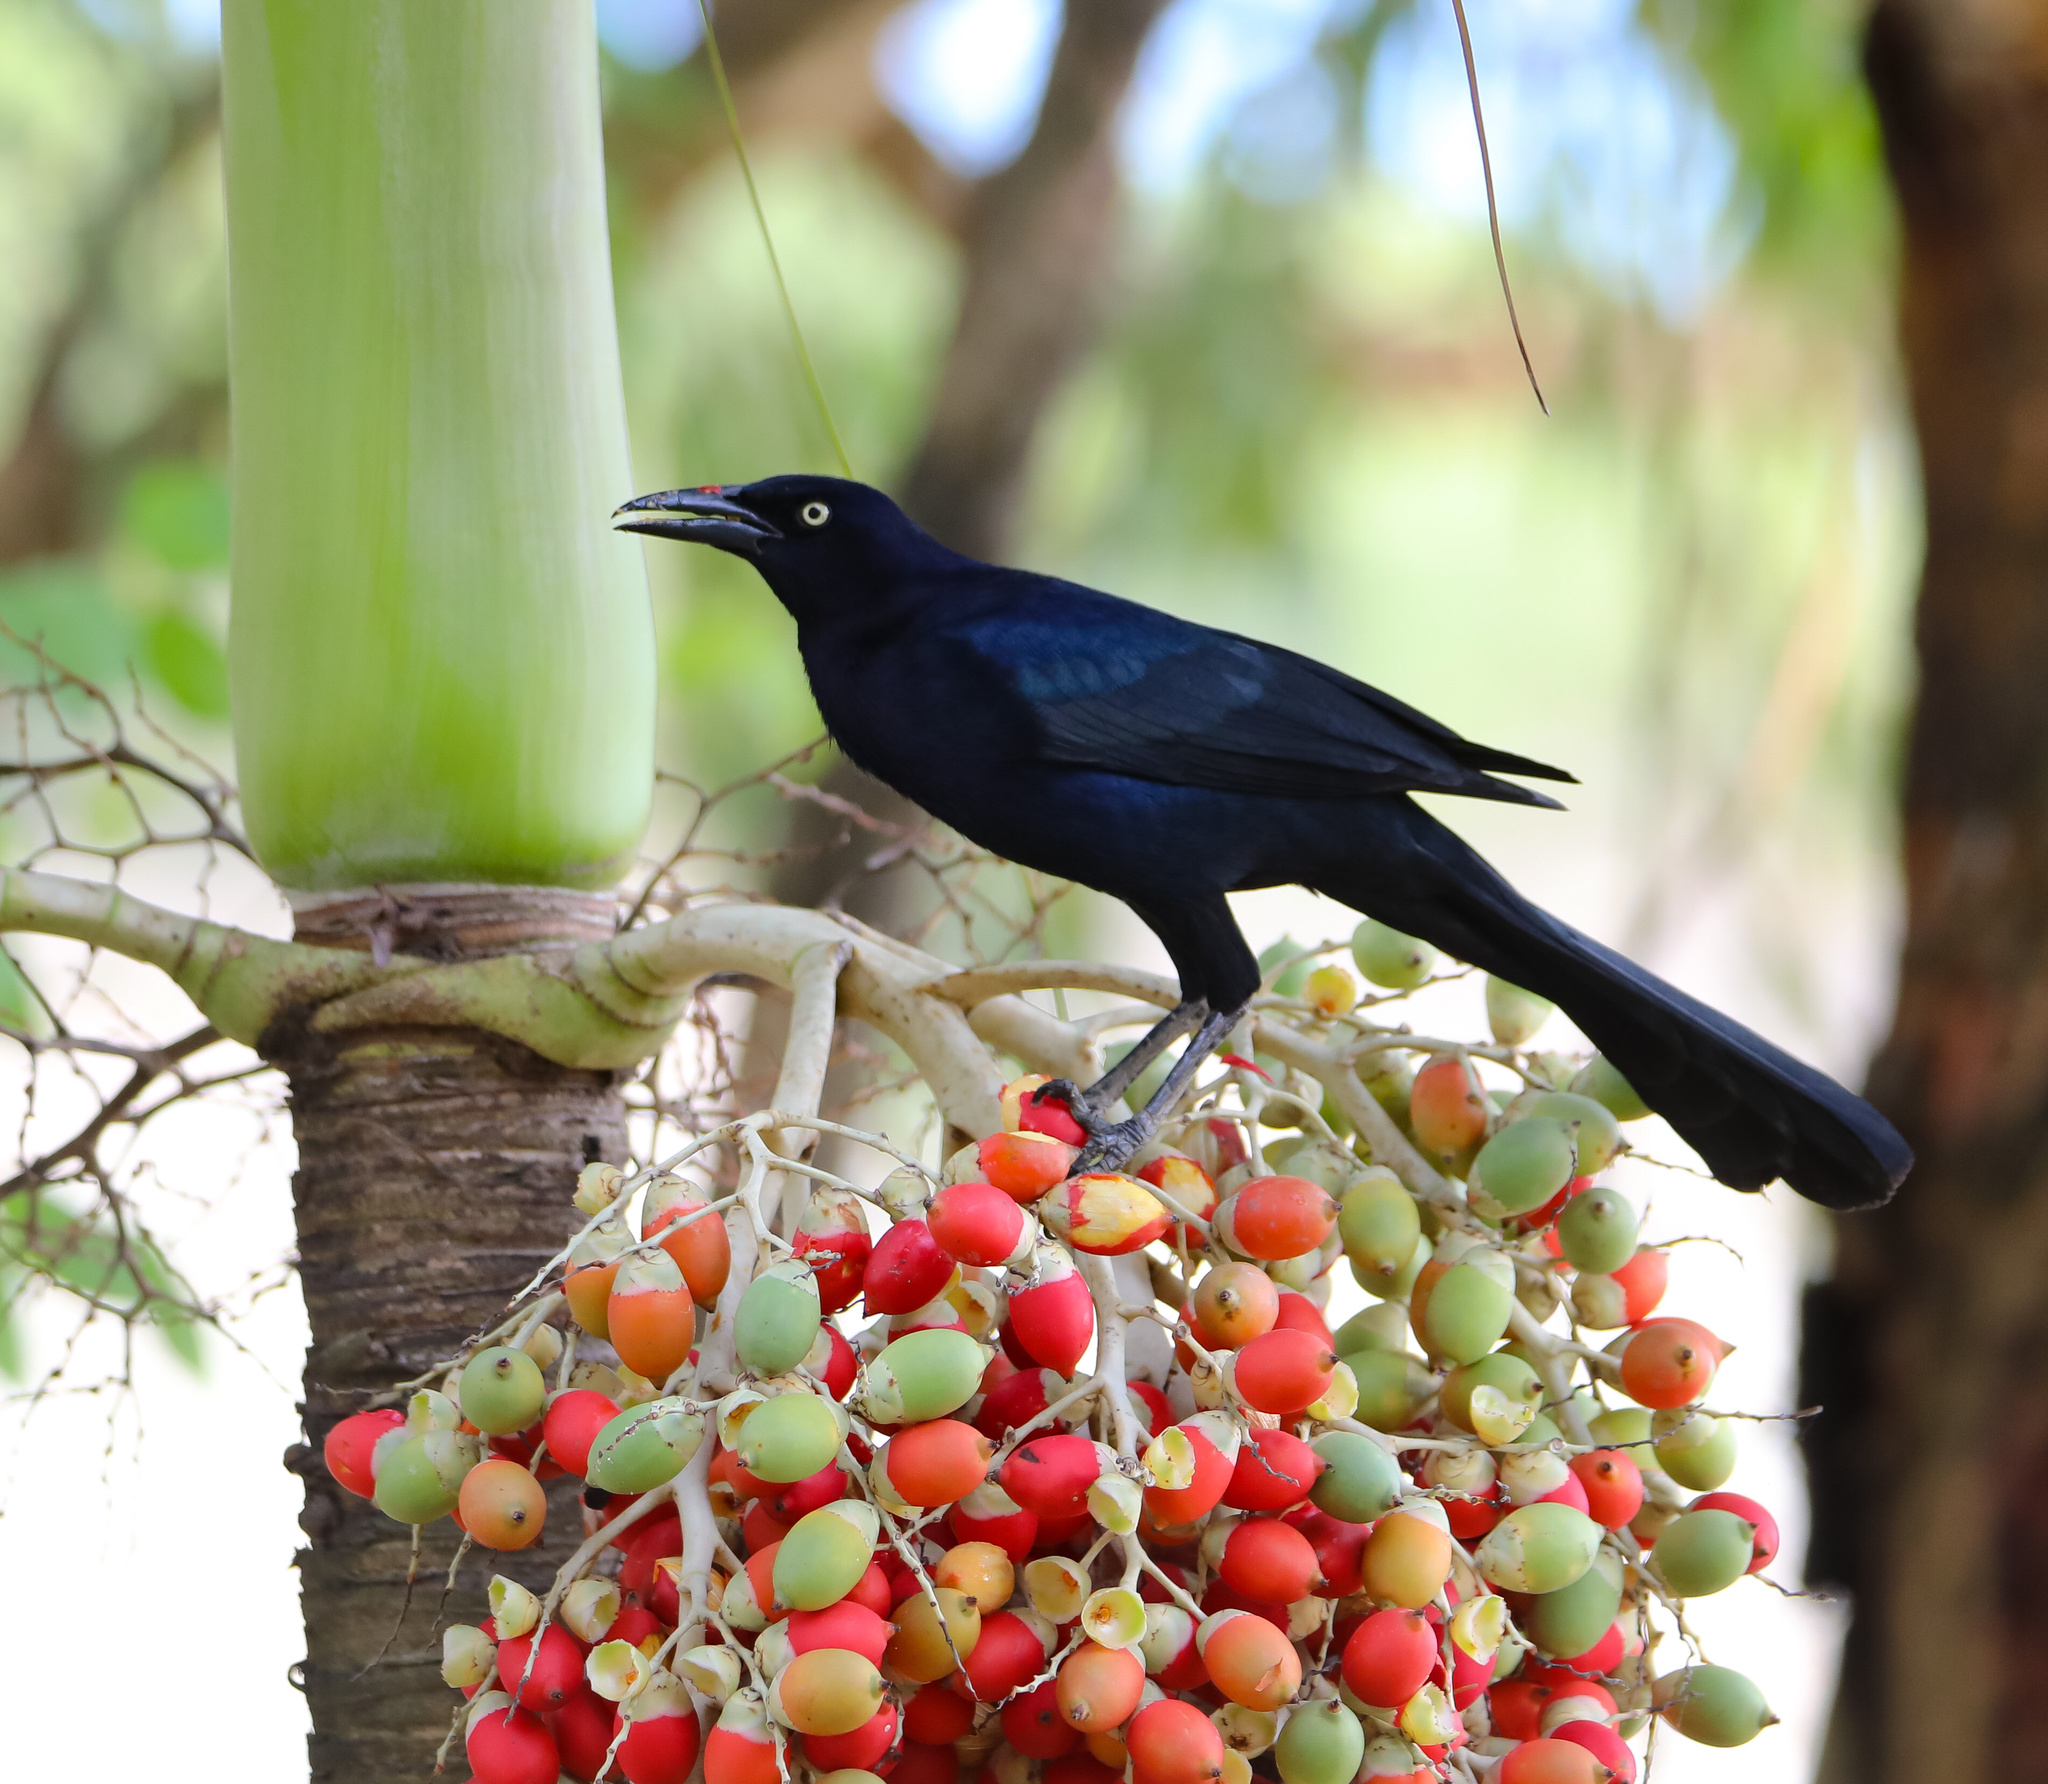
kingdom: Animalia
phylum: Chordata
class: Aves
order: Passeriformes
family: Icteridae
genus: Quiscalus
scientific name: Quiscalus mexicanus
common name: Great-tailed grackle
